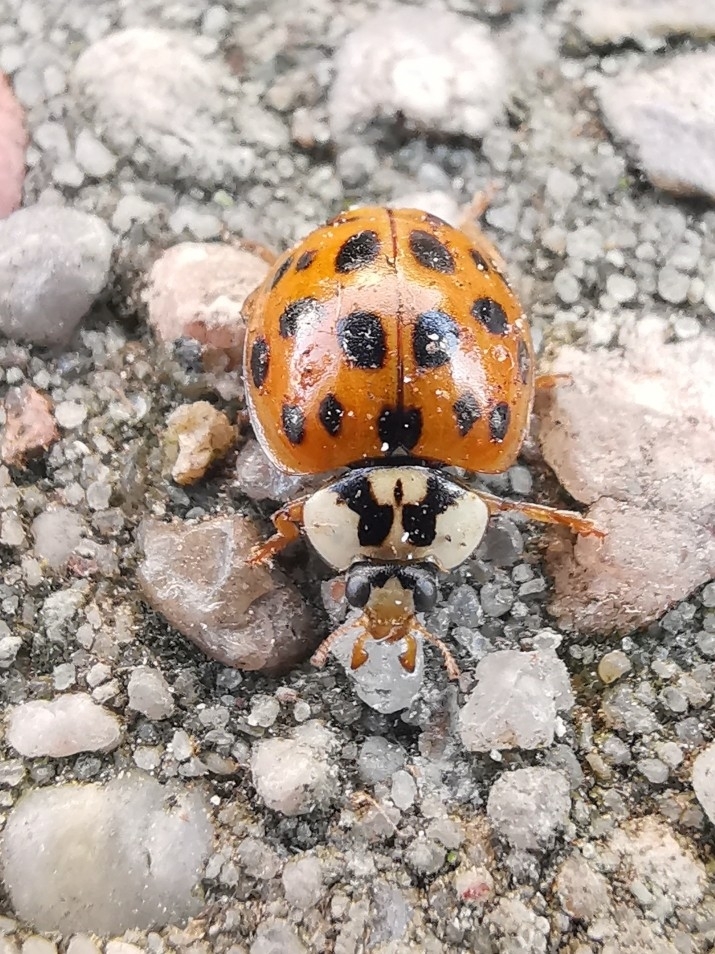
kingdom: Animalia
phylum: Arthropoda
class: Insecta
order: Coleoptera
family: Coccinellidae
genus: Harmonia
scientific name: Harmonia axyridis
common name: Harlequin ladybird
